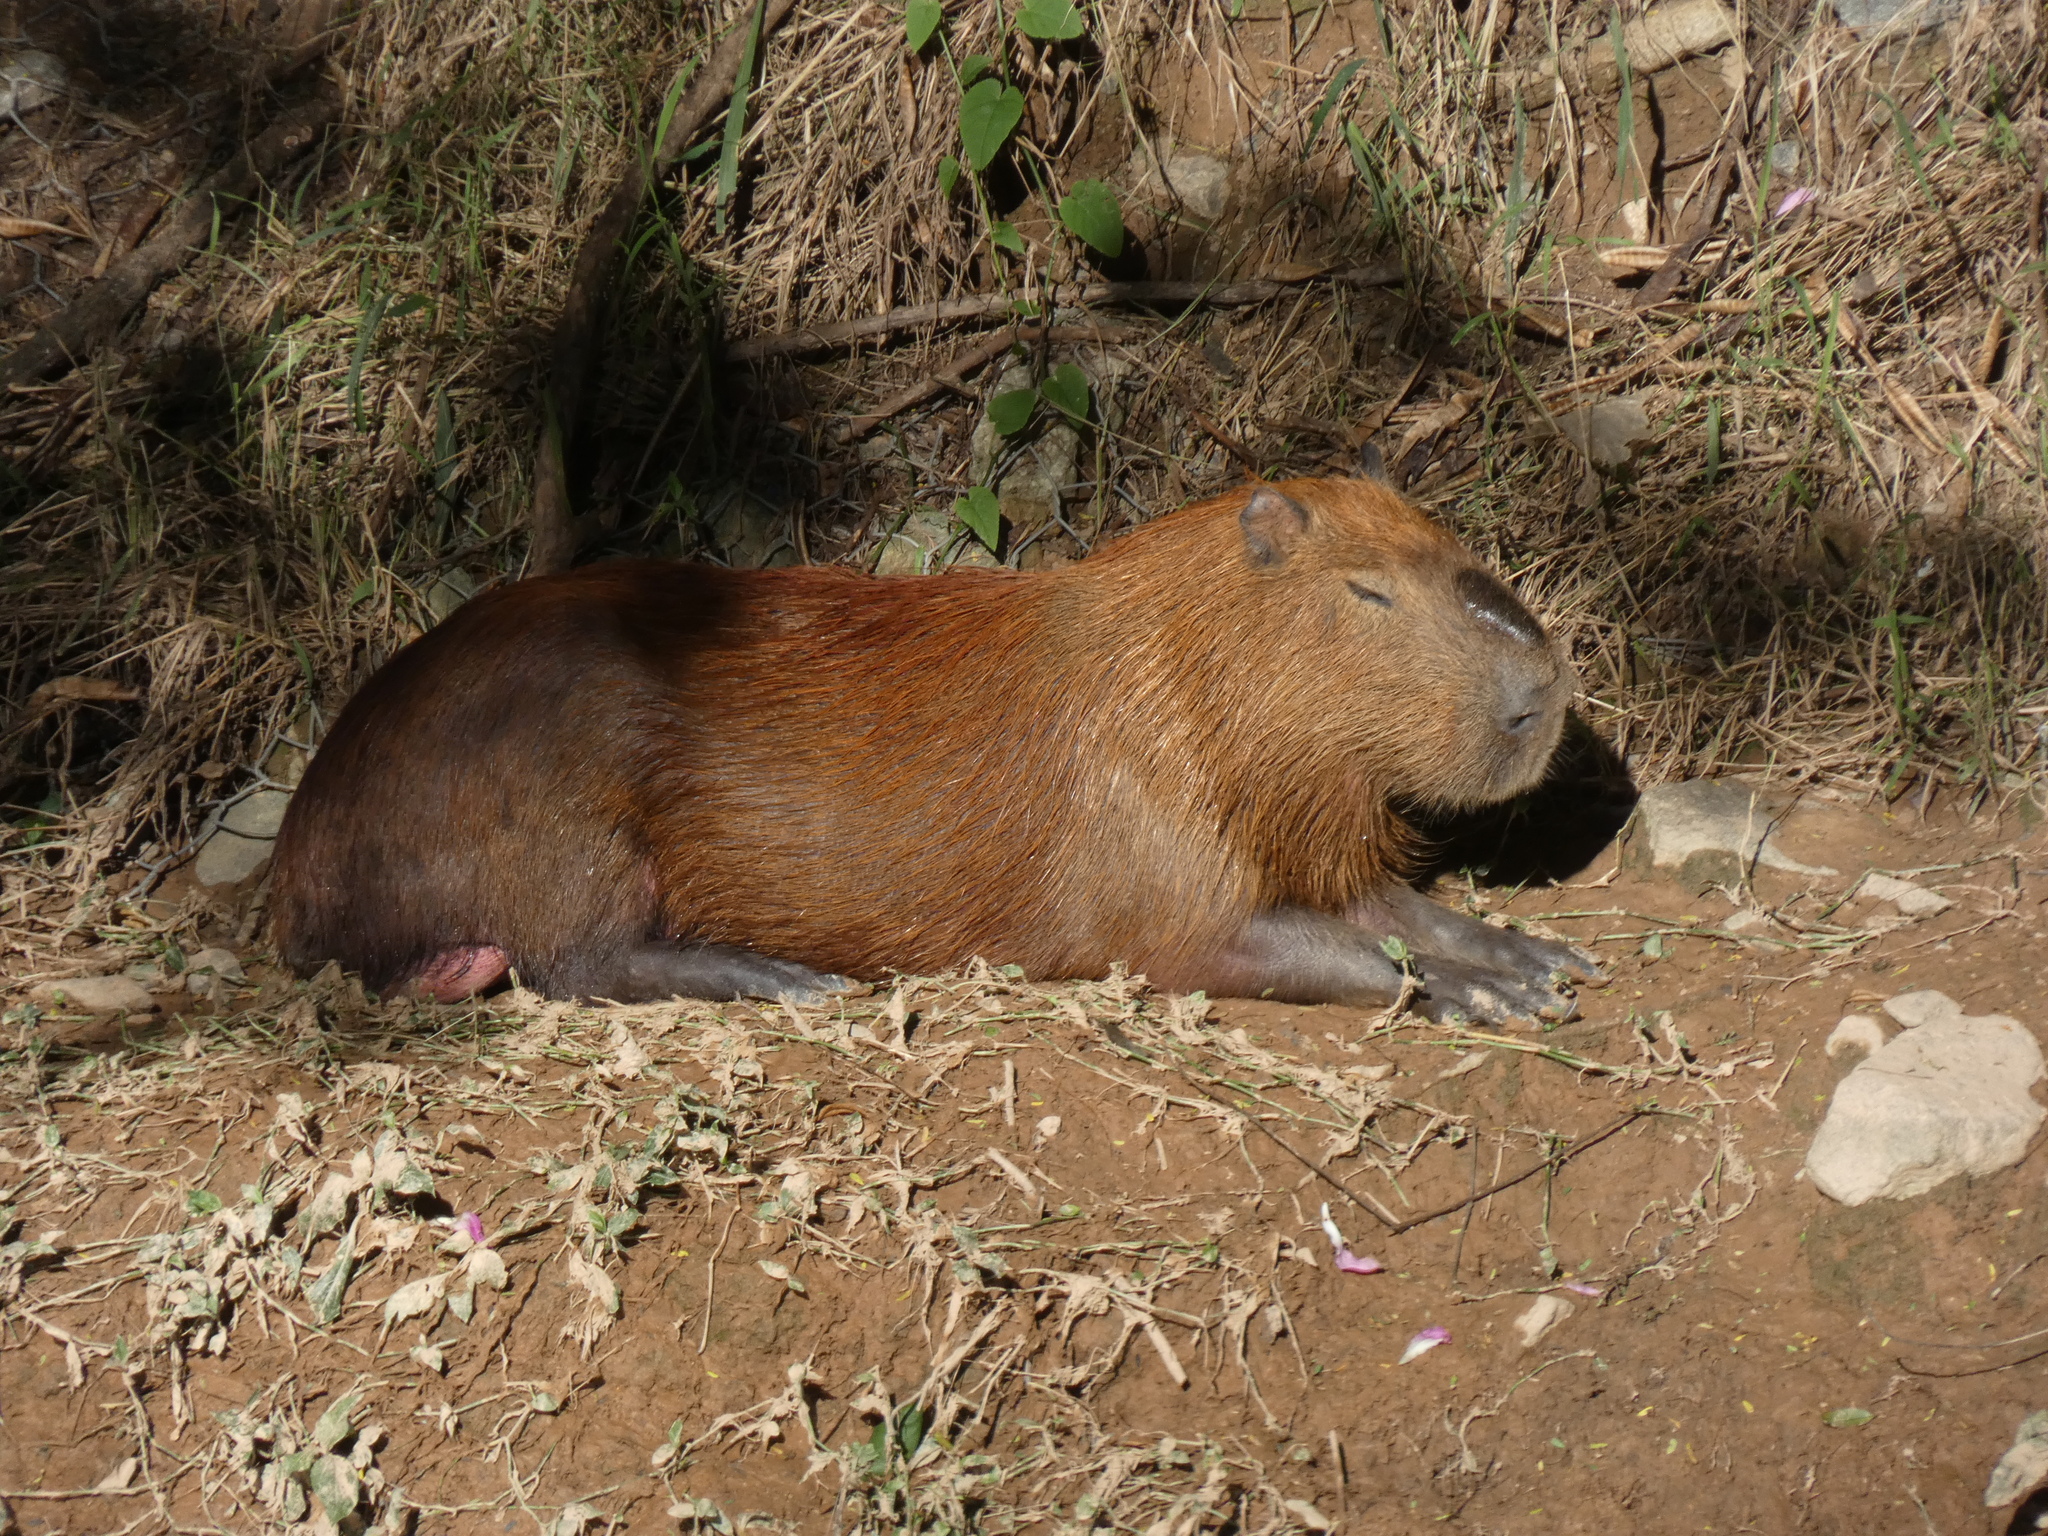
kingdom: Animalia
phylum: Chordata
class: Mammalia
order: Rodentia
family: Caviidae
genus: Hydrochoerus
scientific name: Hydrochoerus hydrochaeris
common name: Capybara
